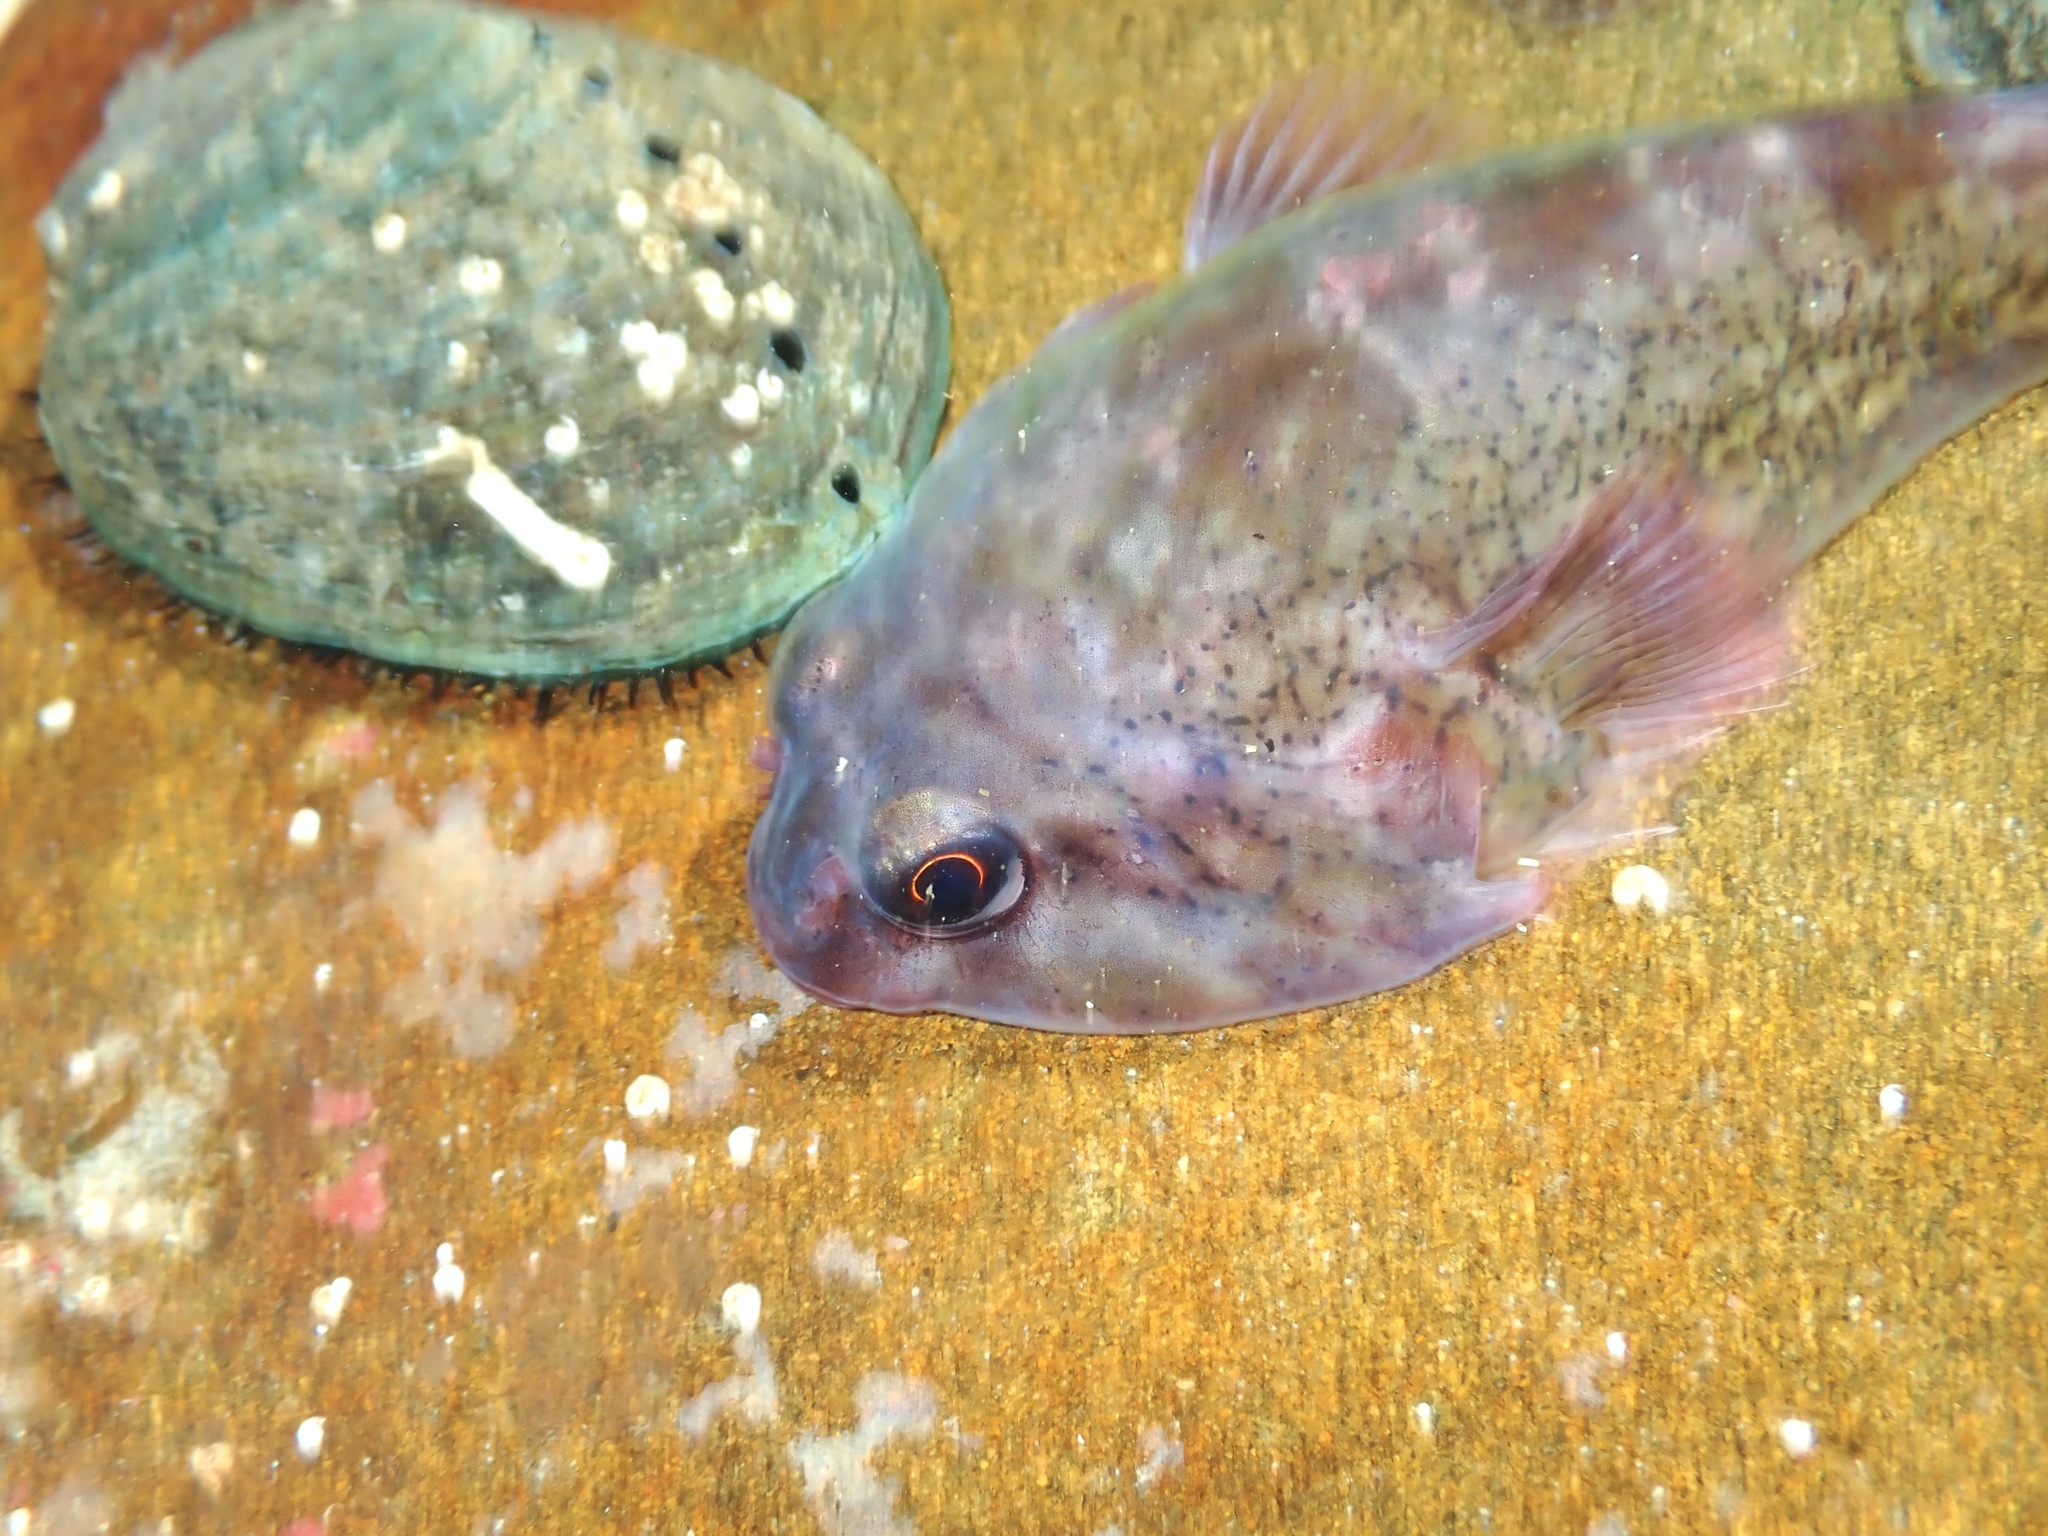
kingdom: Animalia
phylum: Chordata
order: Gobiesociformes
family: Gobiesocidae
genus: Diplocrepis
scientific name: Diplocrepis puniceus
